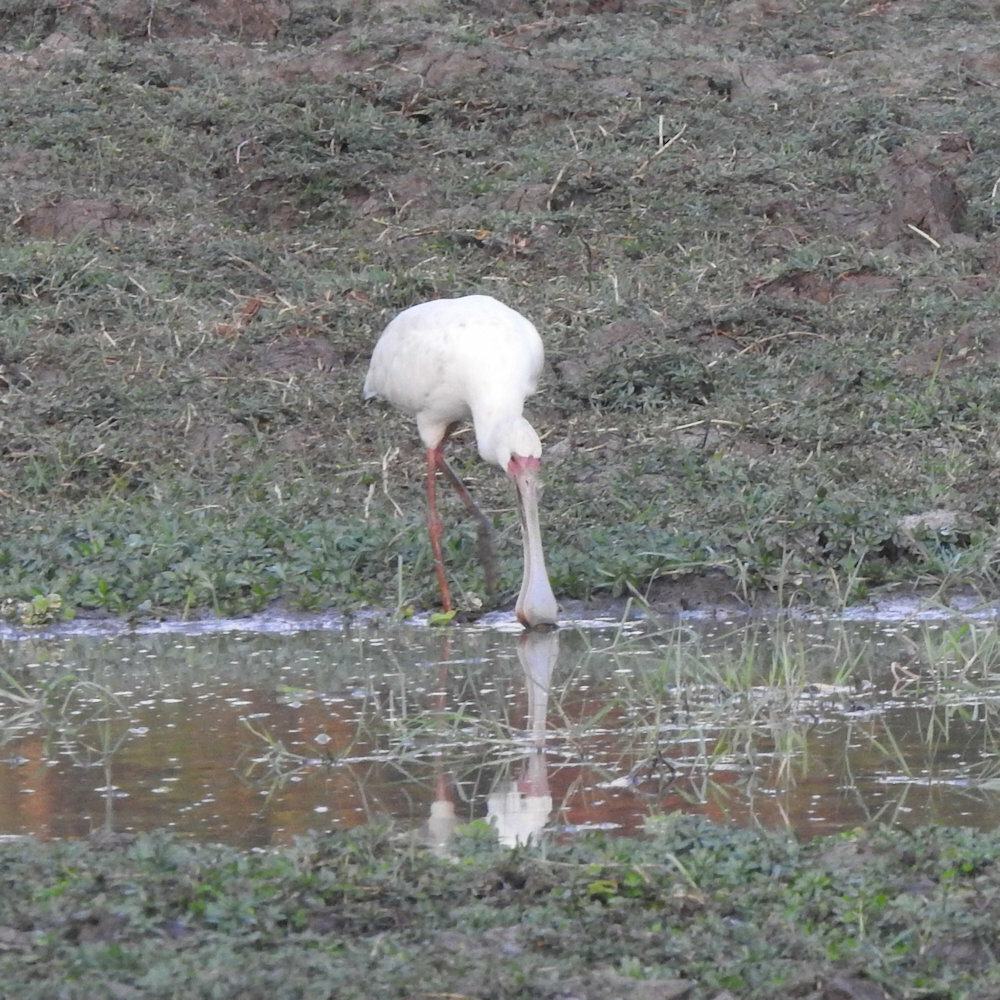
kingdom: Animalia
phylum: Chordata
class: Aves
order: Pelecaniformes
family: Threskiornithidae
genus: Platalea
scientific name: Platalea alba
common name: African spoonbill
